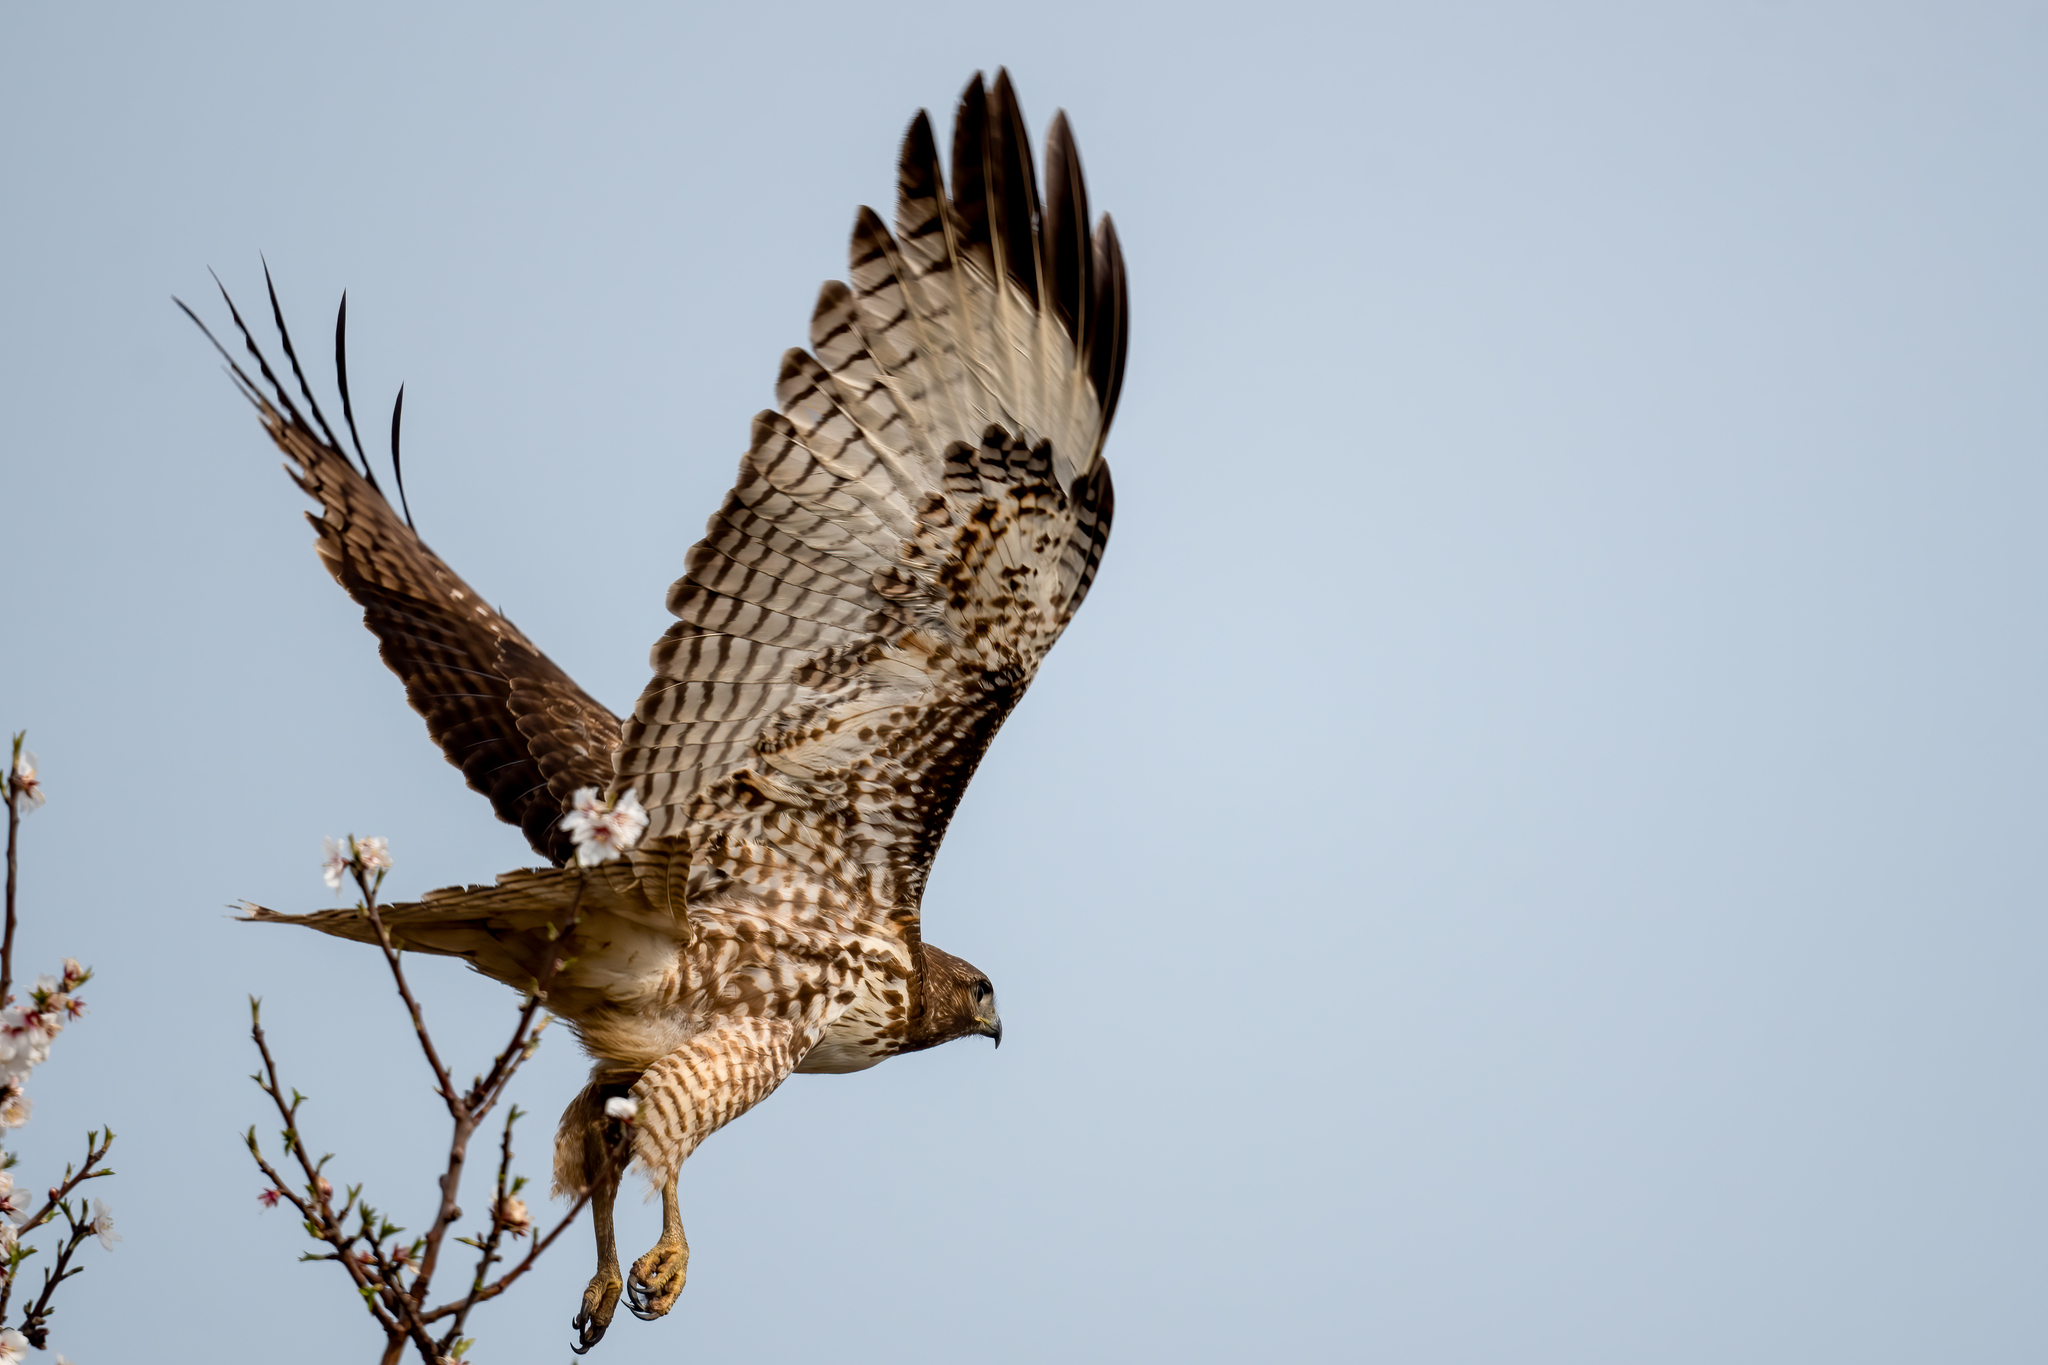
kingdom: Animalia
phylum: Chordata
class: Aves
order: Accipitriformes
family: Accipitridae
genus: Buteo
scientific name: Buteo jamaicensis
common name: Red-tailed hawk
